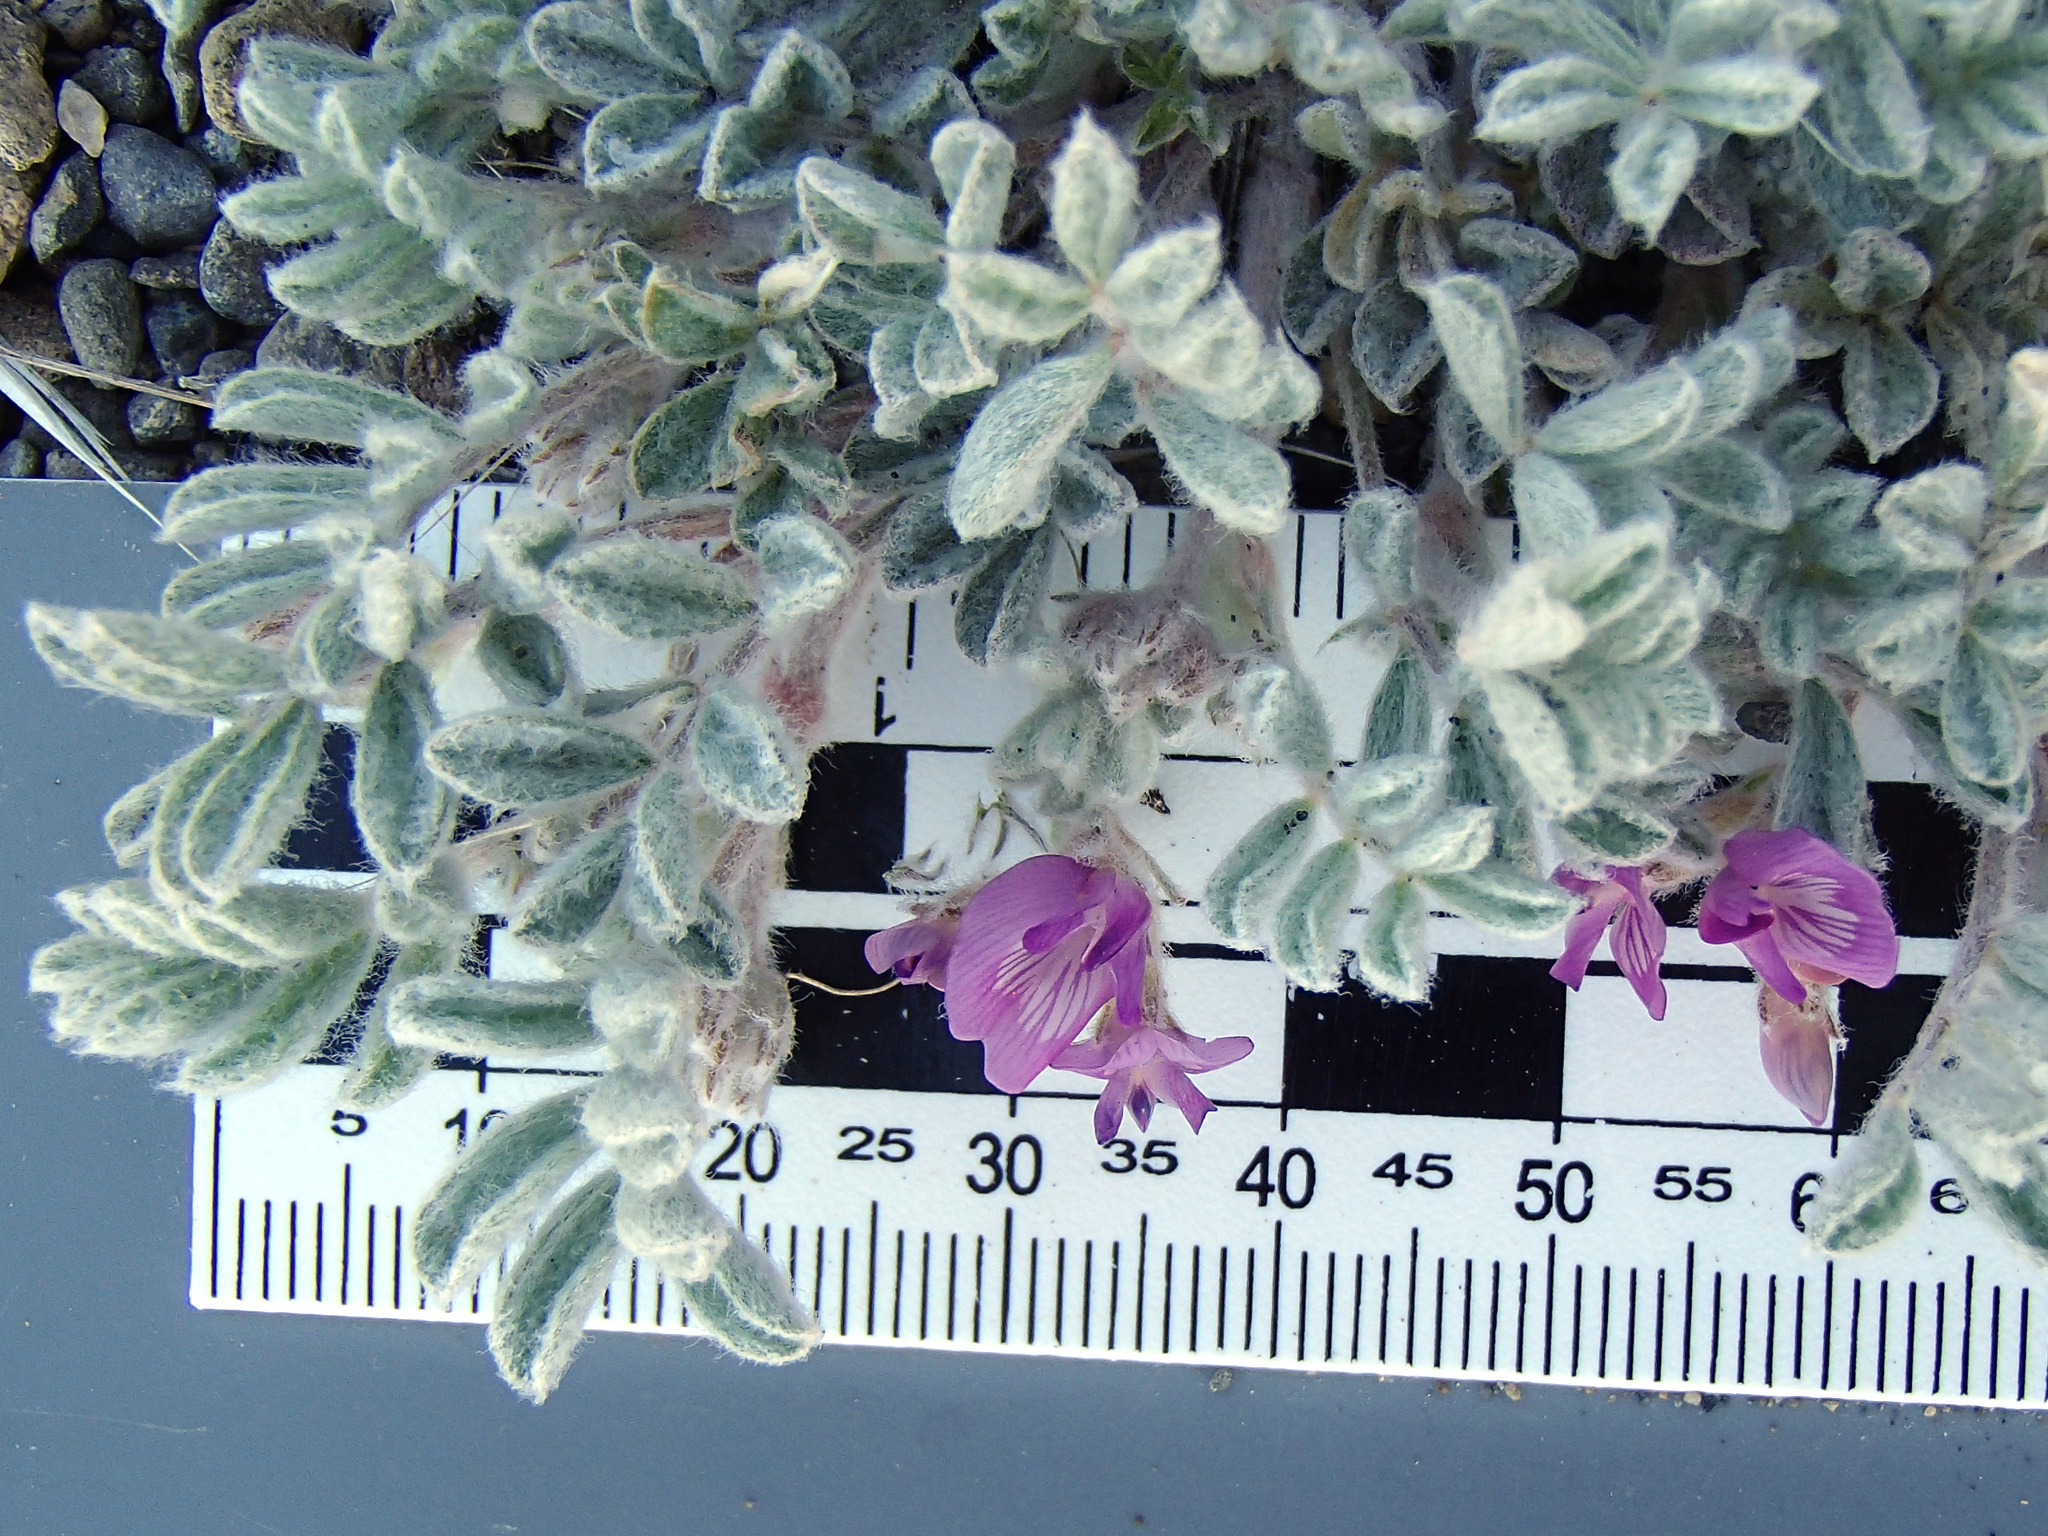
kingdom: Plantae
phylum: Tracheophyta
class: Magnoliopsida
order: Fabales
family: Fabaceae
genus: Astragalus
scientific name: Astragalus purshii
